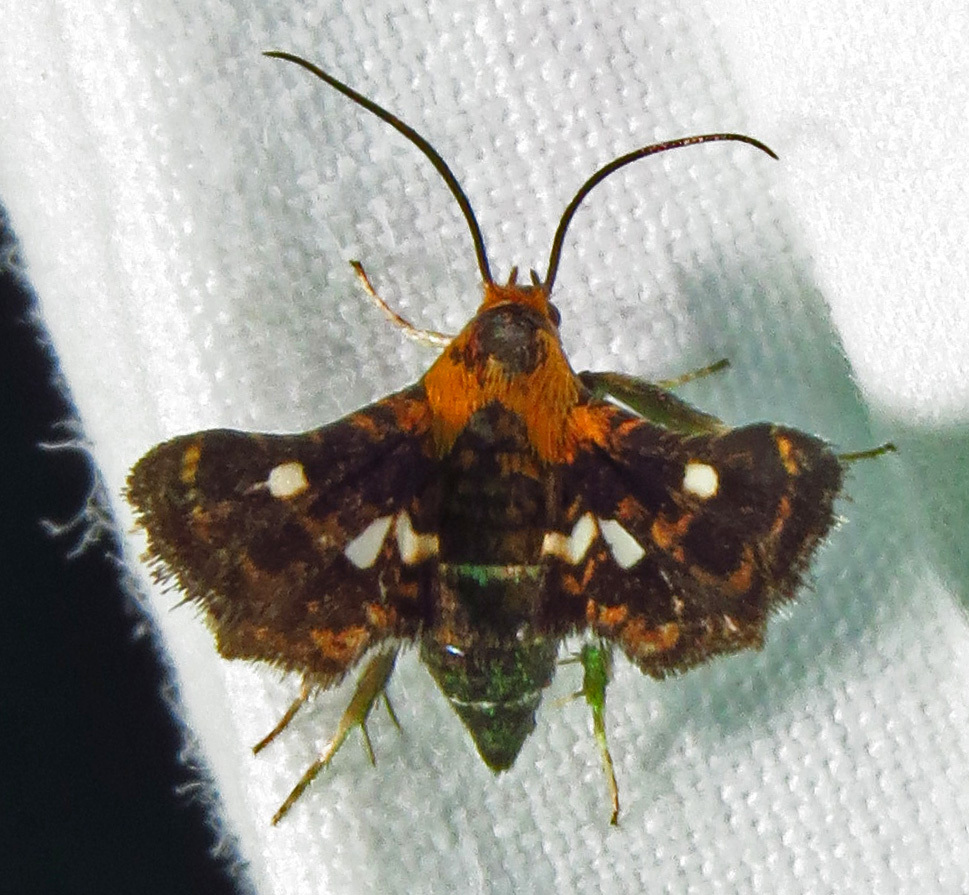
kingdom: Animalia
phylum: Arthropoda
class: Insecta
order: Lepidoptera
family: Thyrididae
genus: Thyris
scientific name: Thyris maculata
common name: Spotted thyris moth
